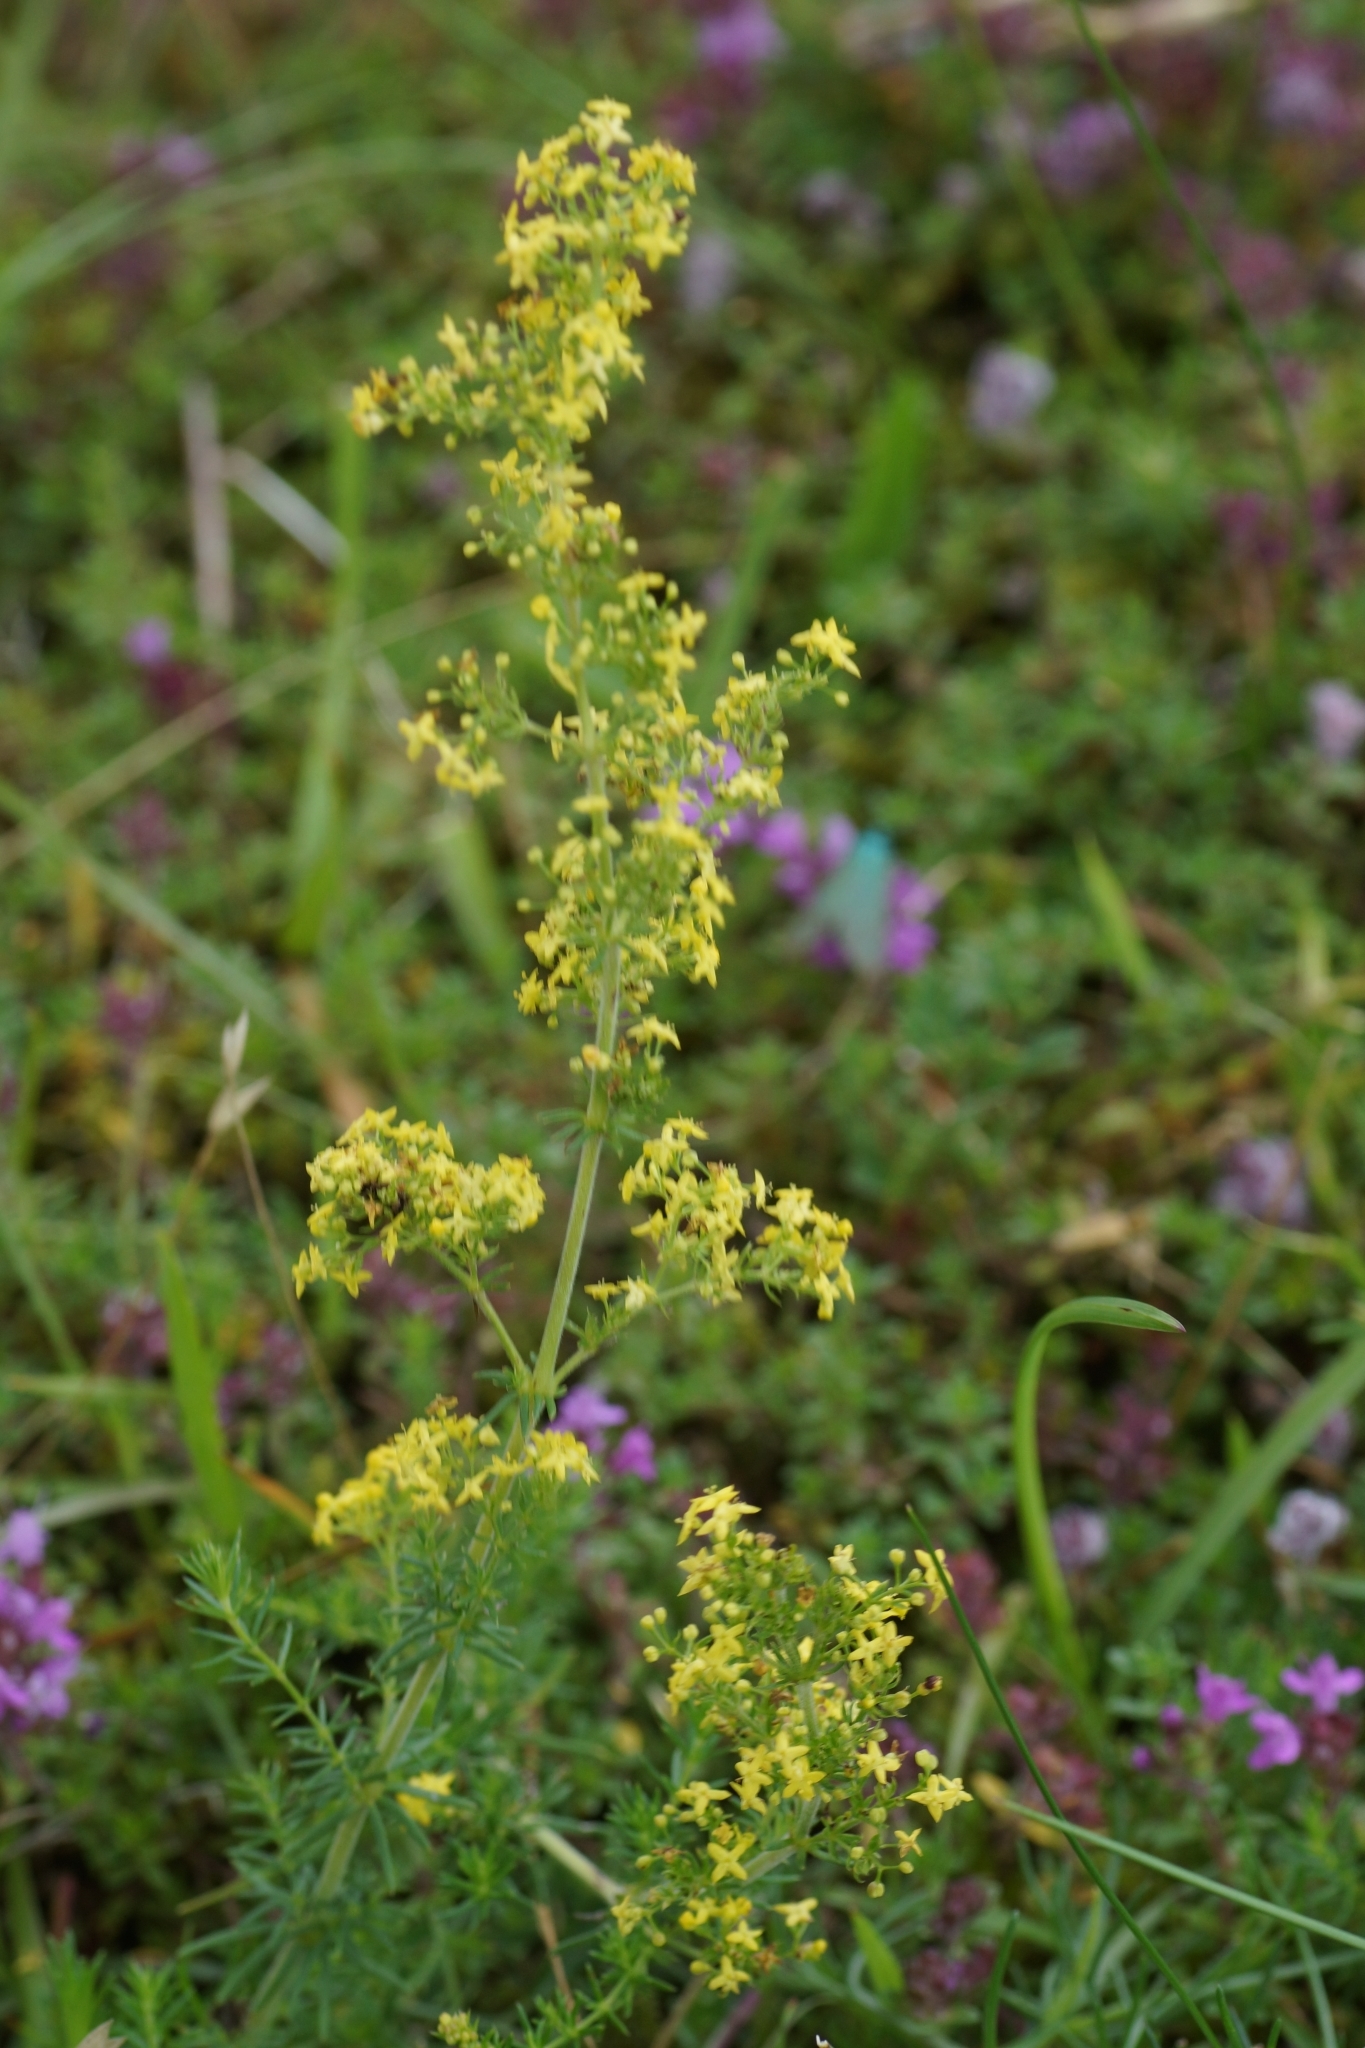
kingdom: Plantae
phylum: Tracheophyta
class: Magnoliopsida
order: Gentianales
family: Rubiaceae
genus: Galium
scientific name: Galium verum
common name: Lady's bedstraw
